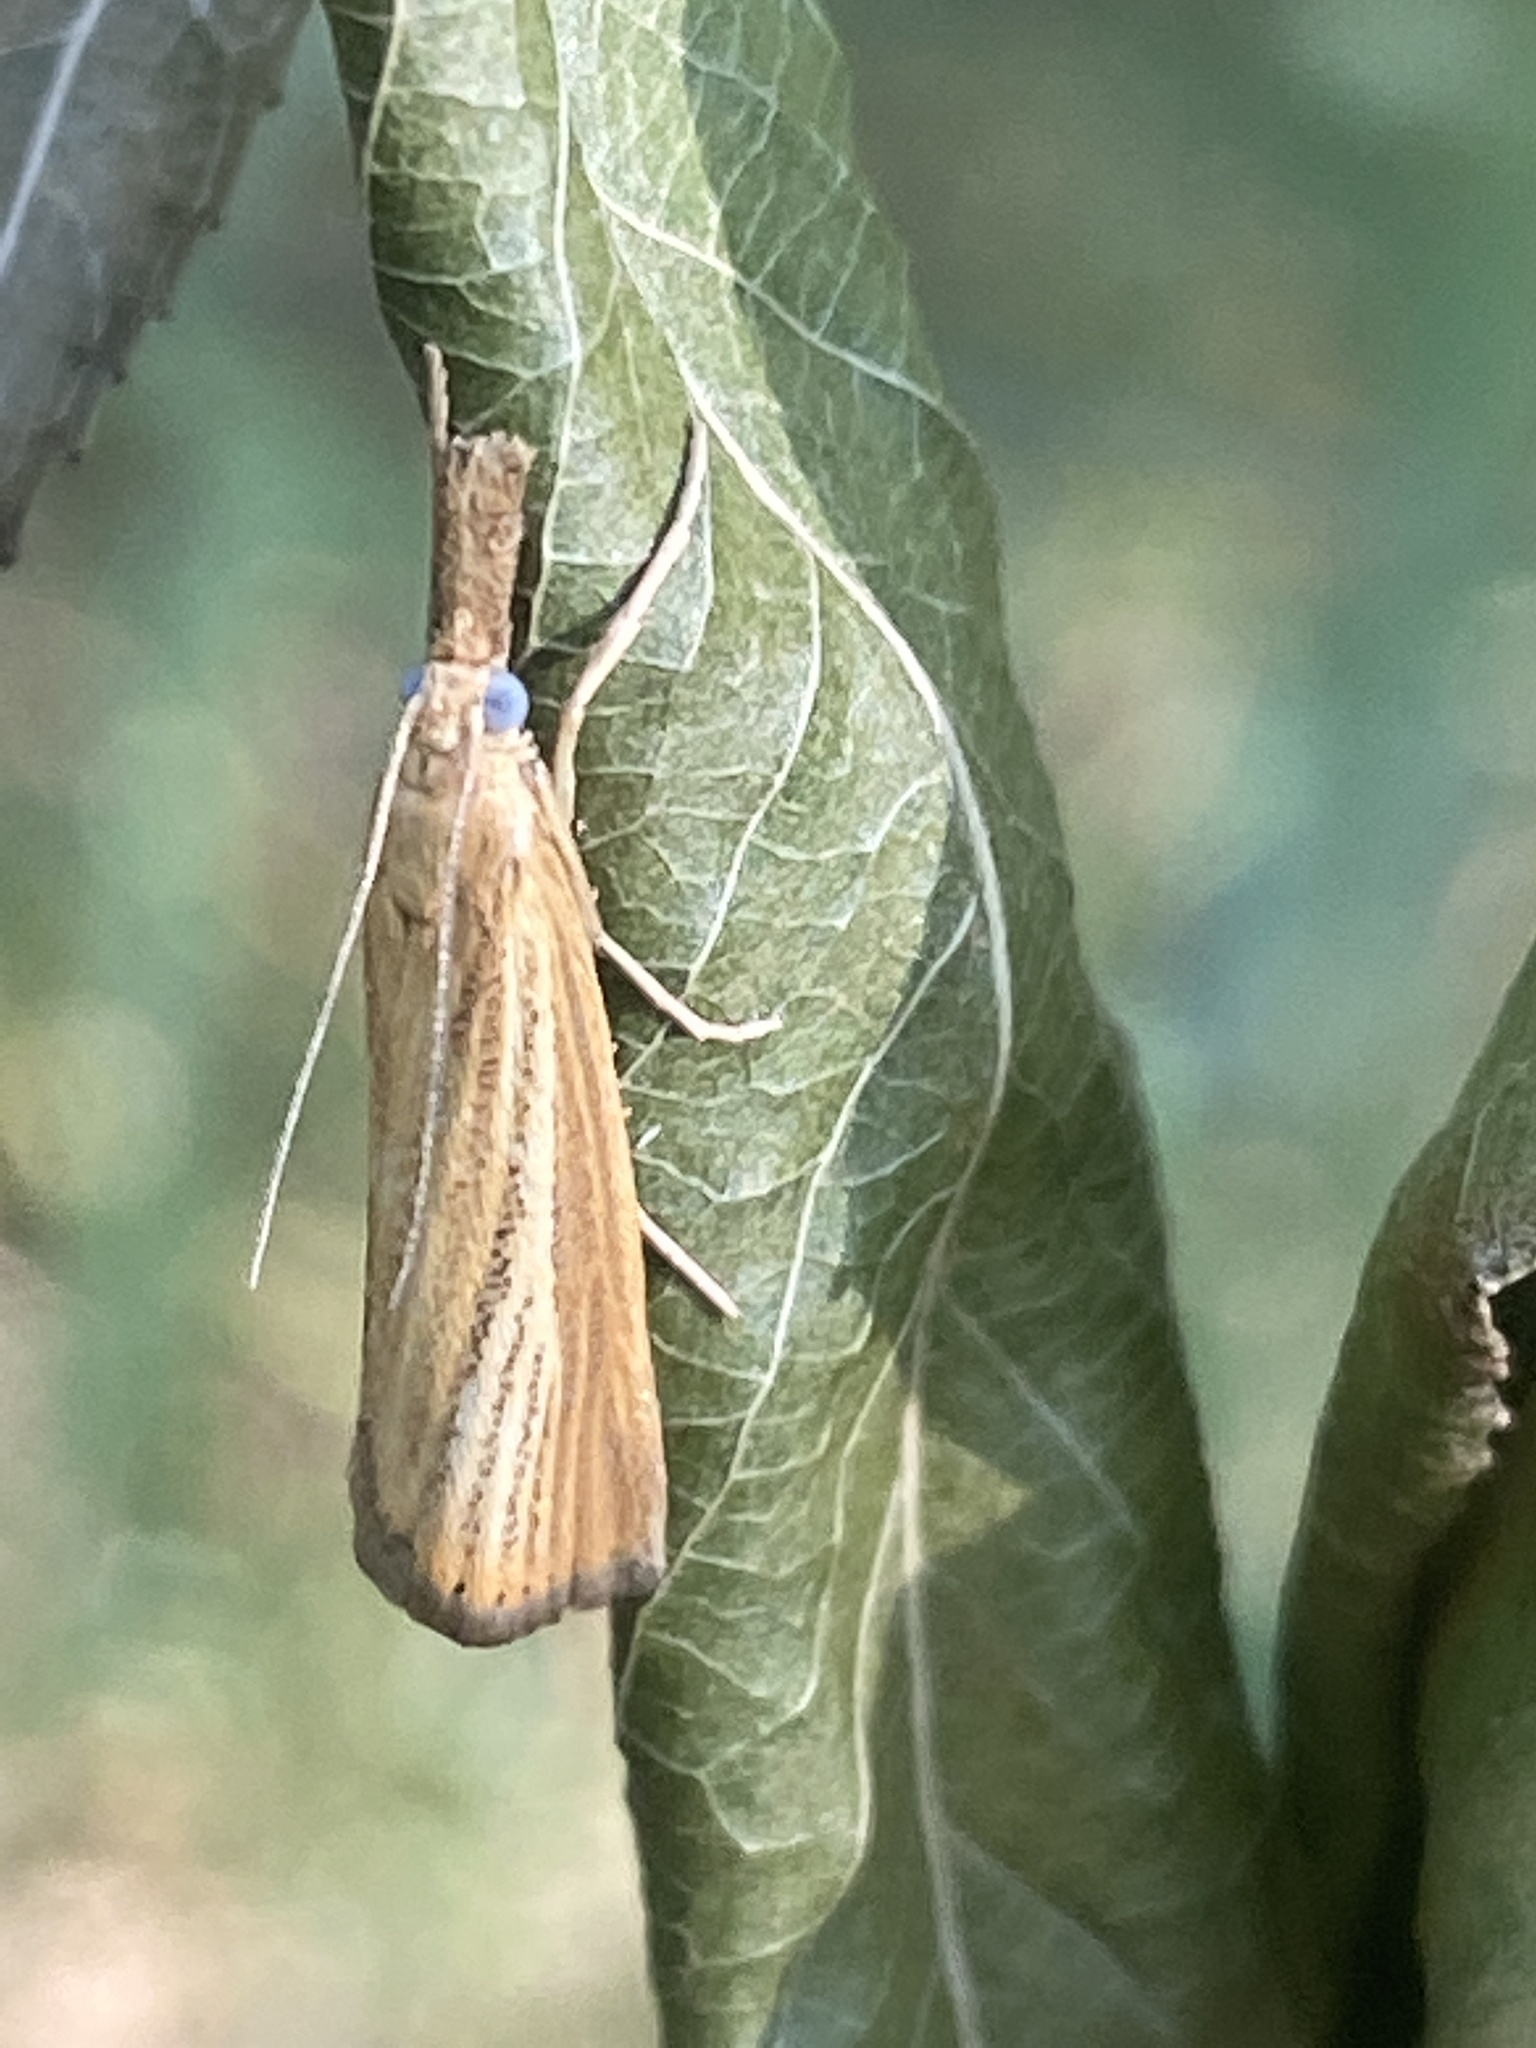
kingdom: Animalia
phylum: Arthropoda
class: Insecta
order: Lepidoptera
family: Crambidae
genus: Agriphila
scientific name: Agriphila straminella
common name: Straw grass-veneer
